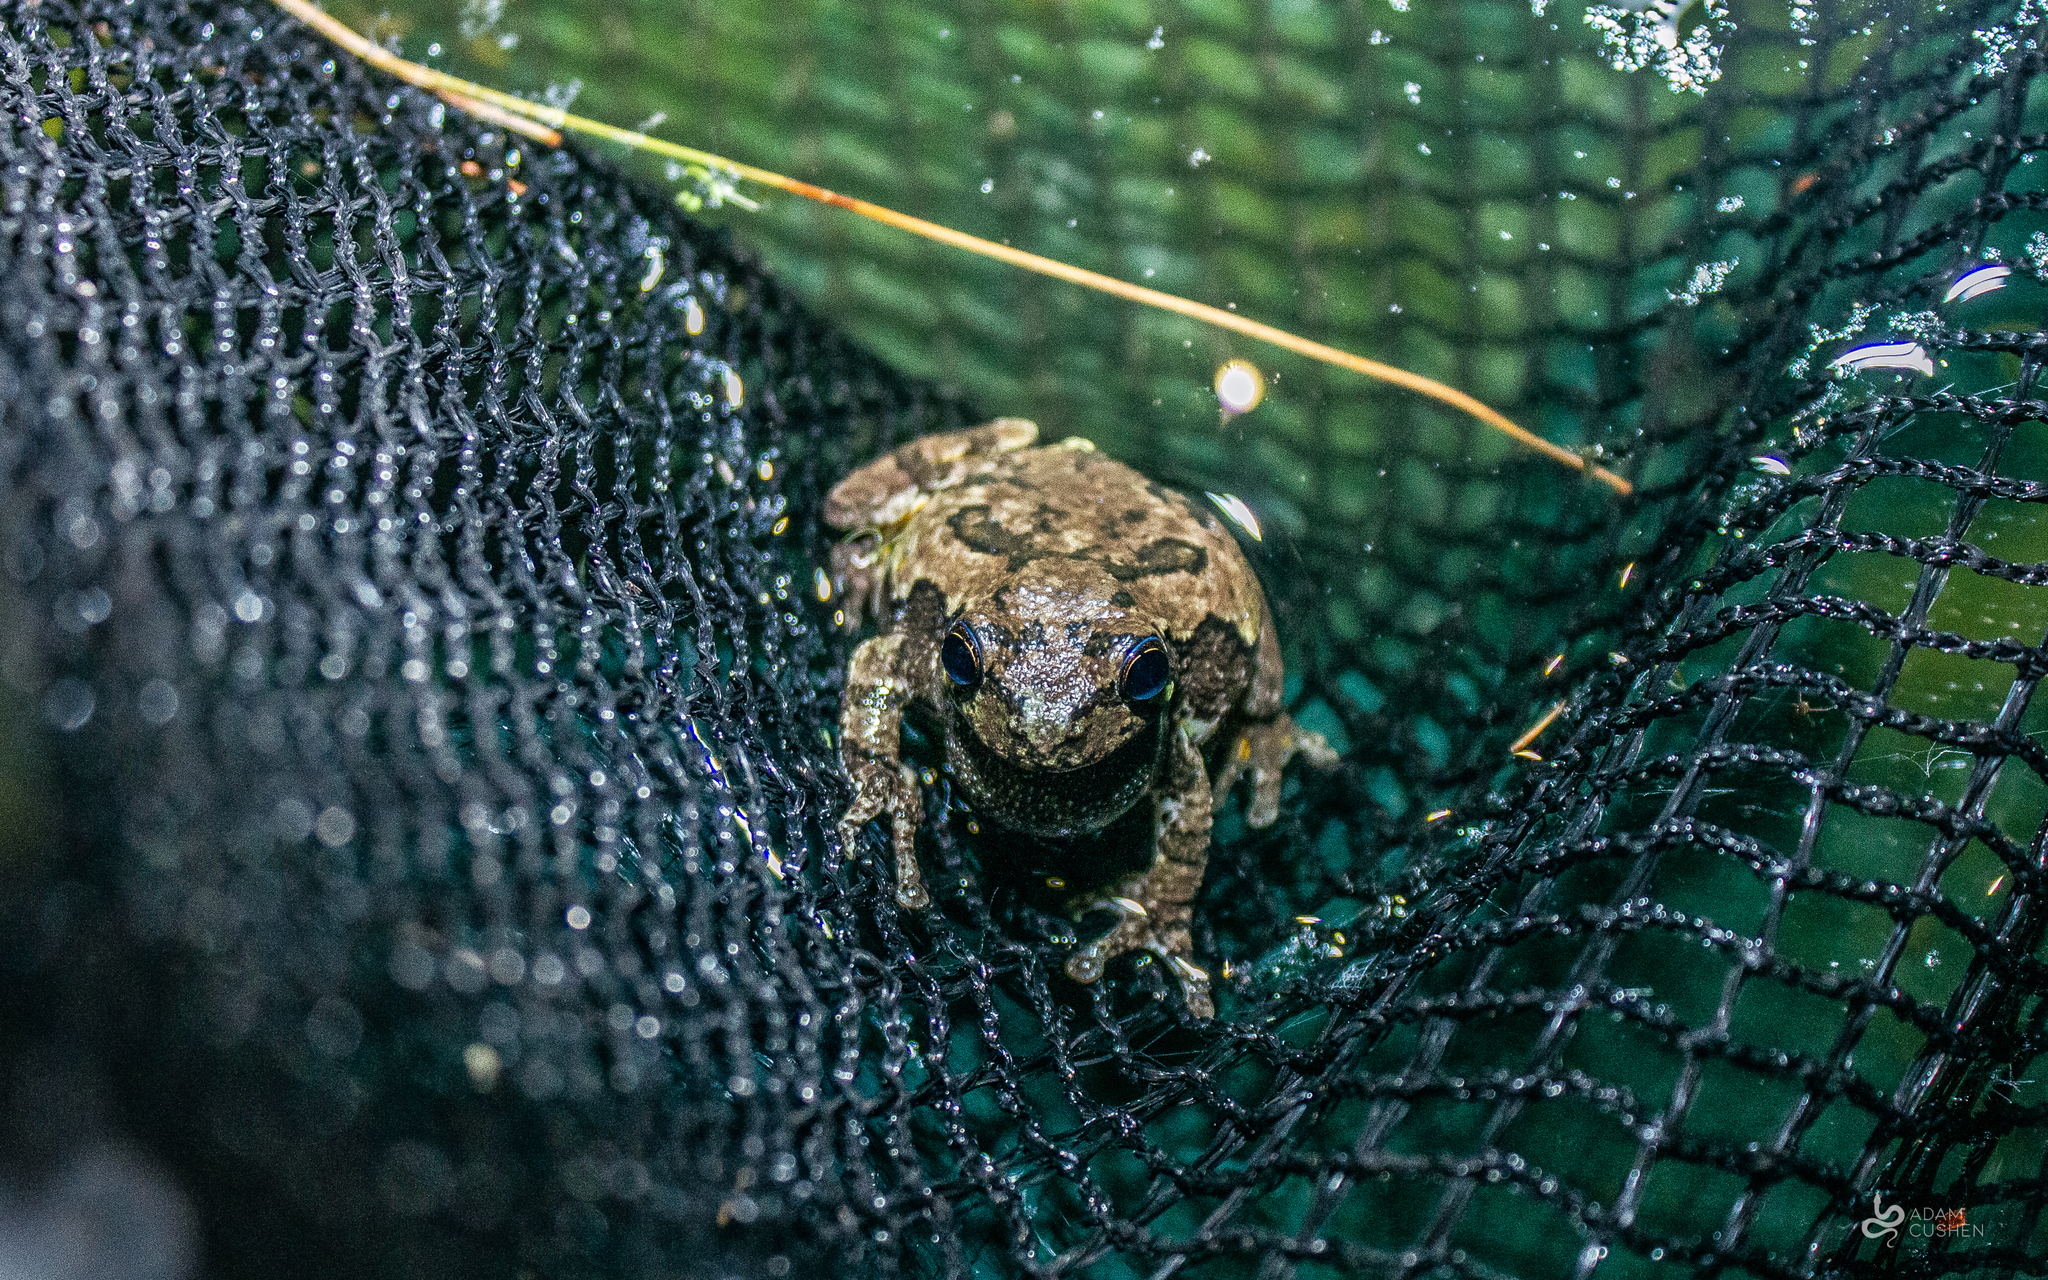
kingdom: Animalia
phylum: Chordata
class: Amphibia
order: Anura
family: Hylidae
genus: Dryophytes
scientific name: Dryophytes versicolor
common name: Gray treefrog
